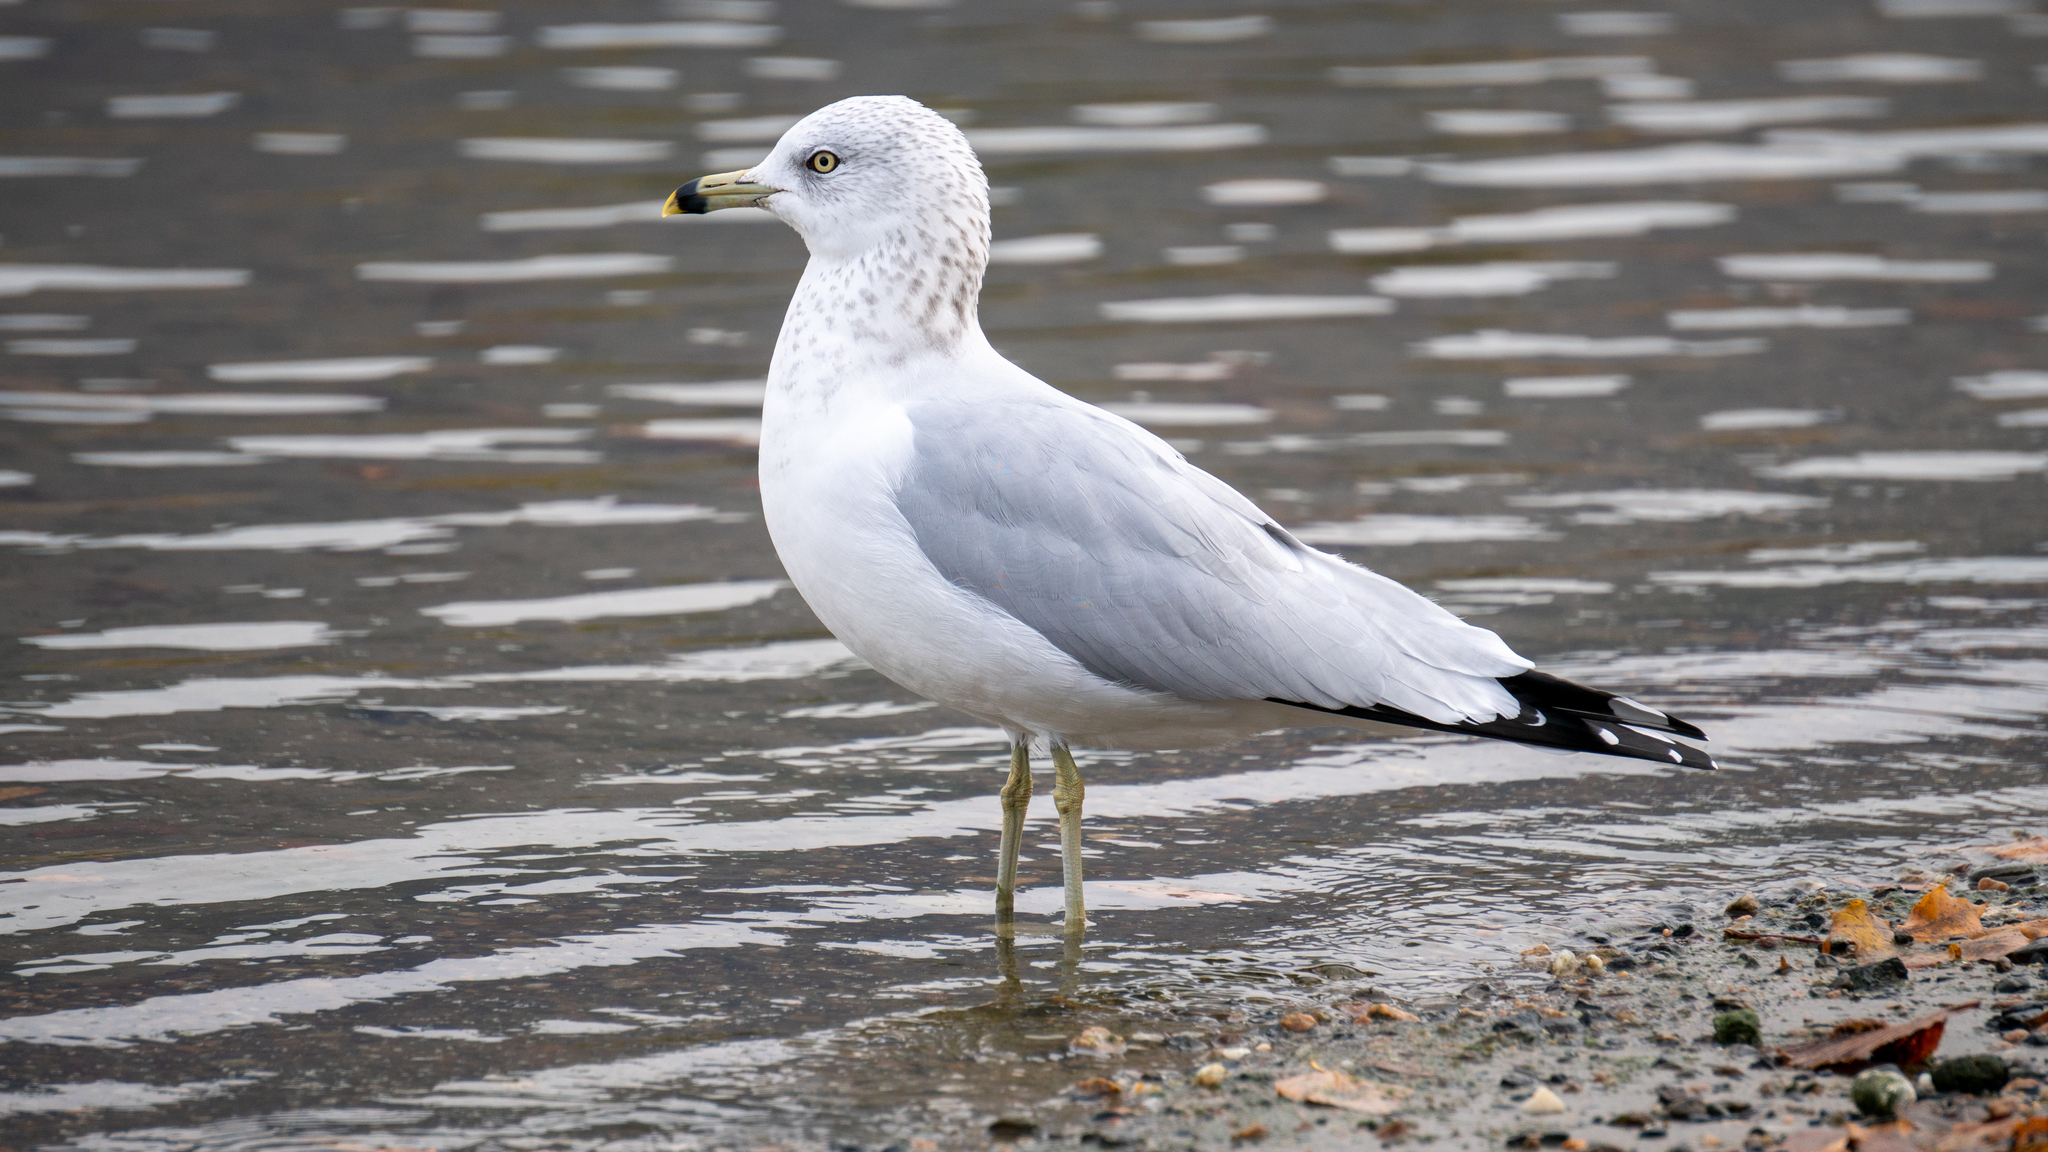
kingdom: Animalia
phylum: Chordata
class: Aves
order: Charadriiformes
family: Laridae
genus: Larus
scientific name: Larus delawarensis
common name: Ring-billed gull
